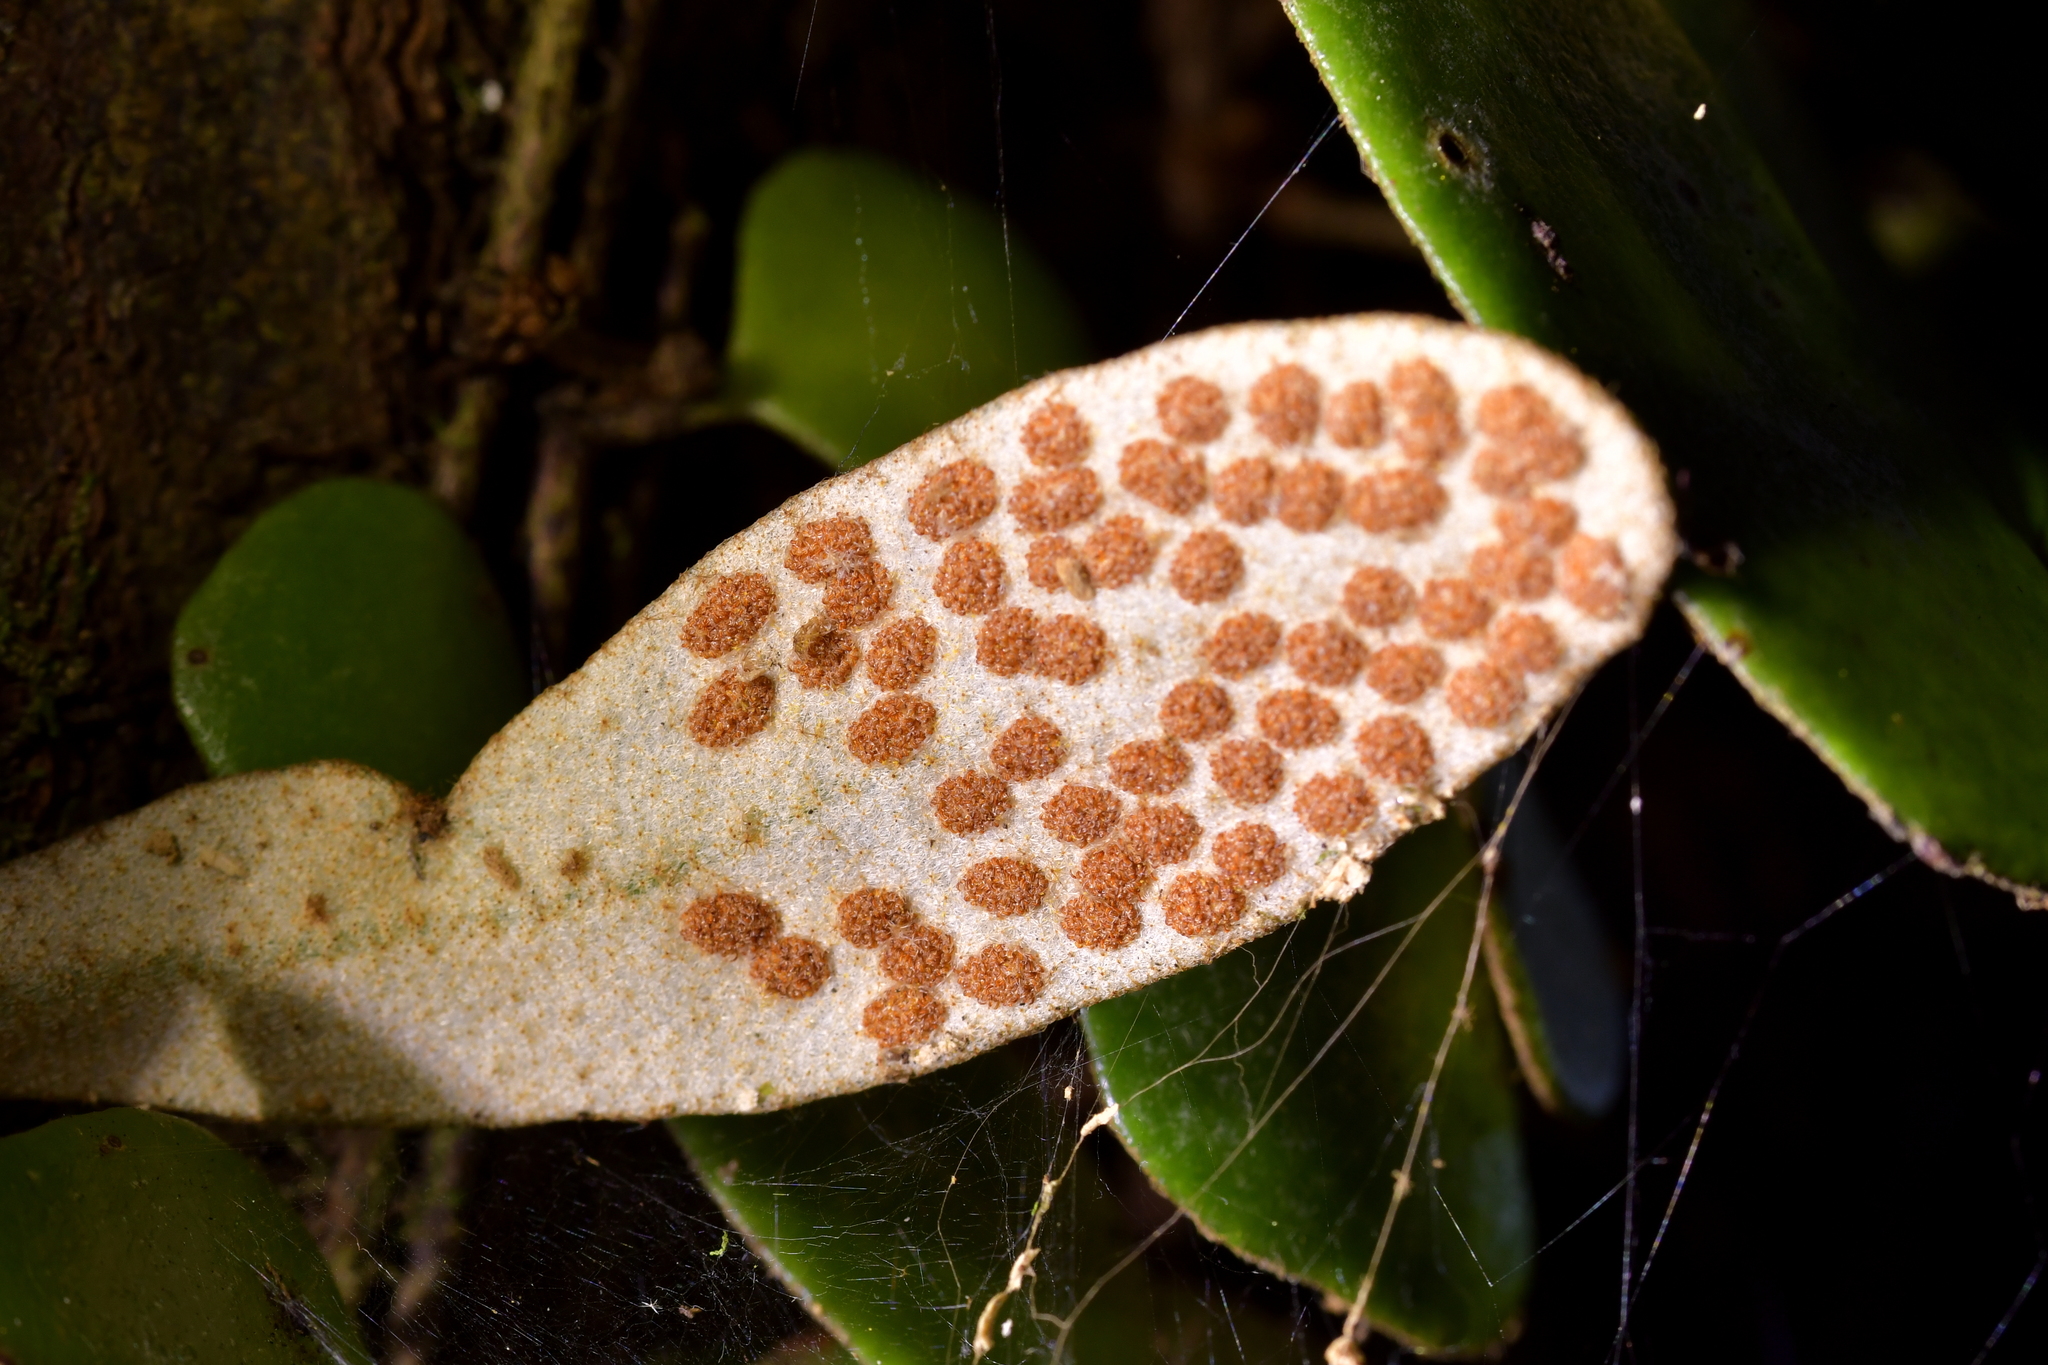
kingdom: Plantae
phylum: Tracheophyta
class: Polypodiopsida
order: Polypodiales
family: Polypodiaceae
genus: Pyrrosia
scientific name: Pyrrosia eleagnifolia
